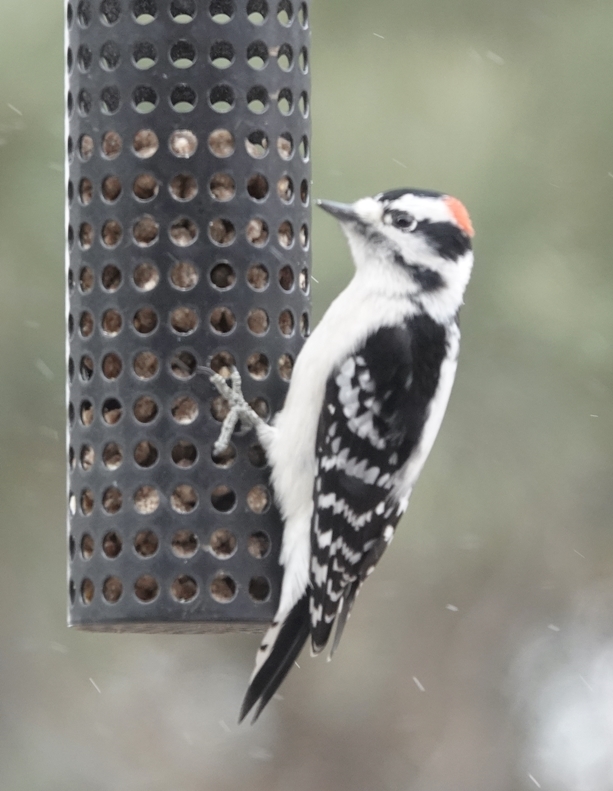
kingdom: Animalia
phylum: Chordata
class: Aves
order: Piciformes
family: Picidae
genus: Dryobates
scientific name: Dryobates pubescens
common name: Downy woodpecker
